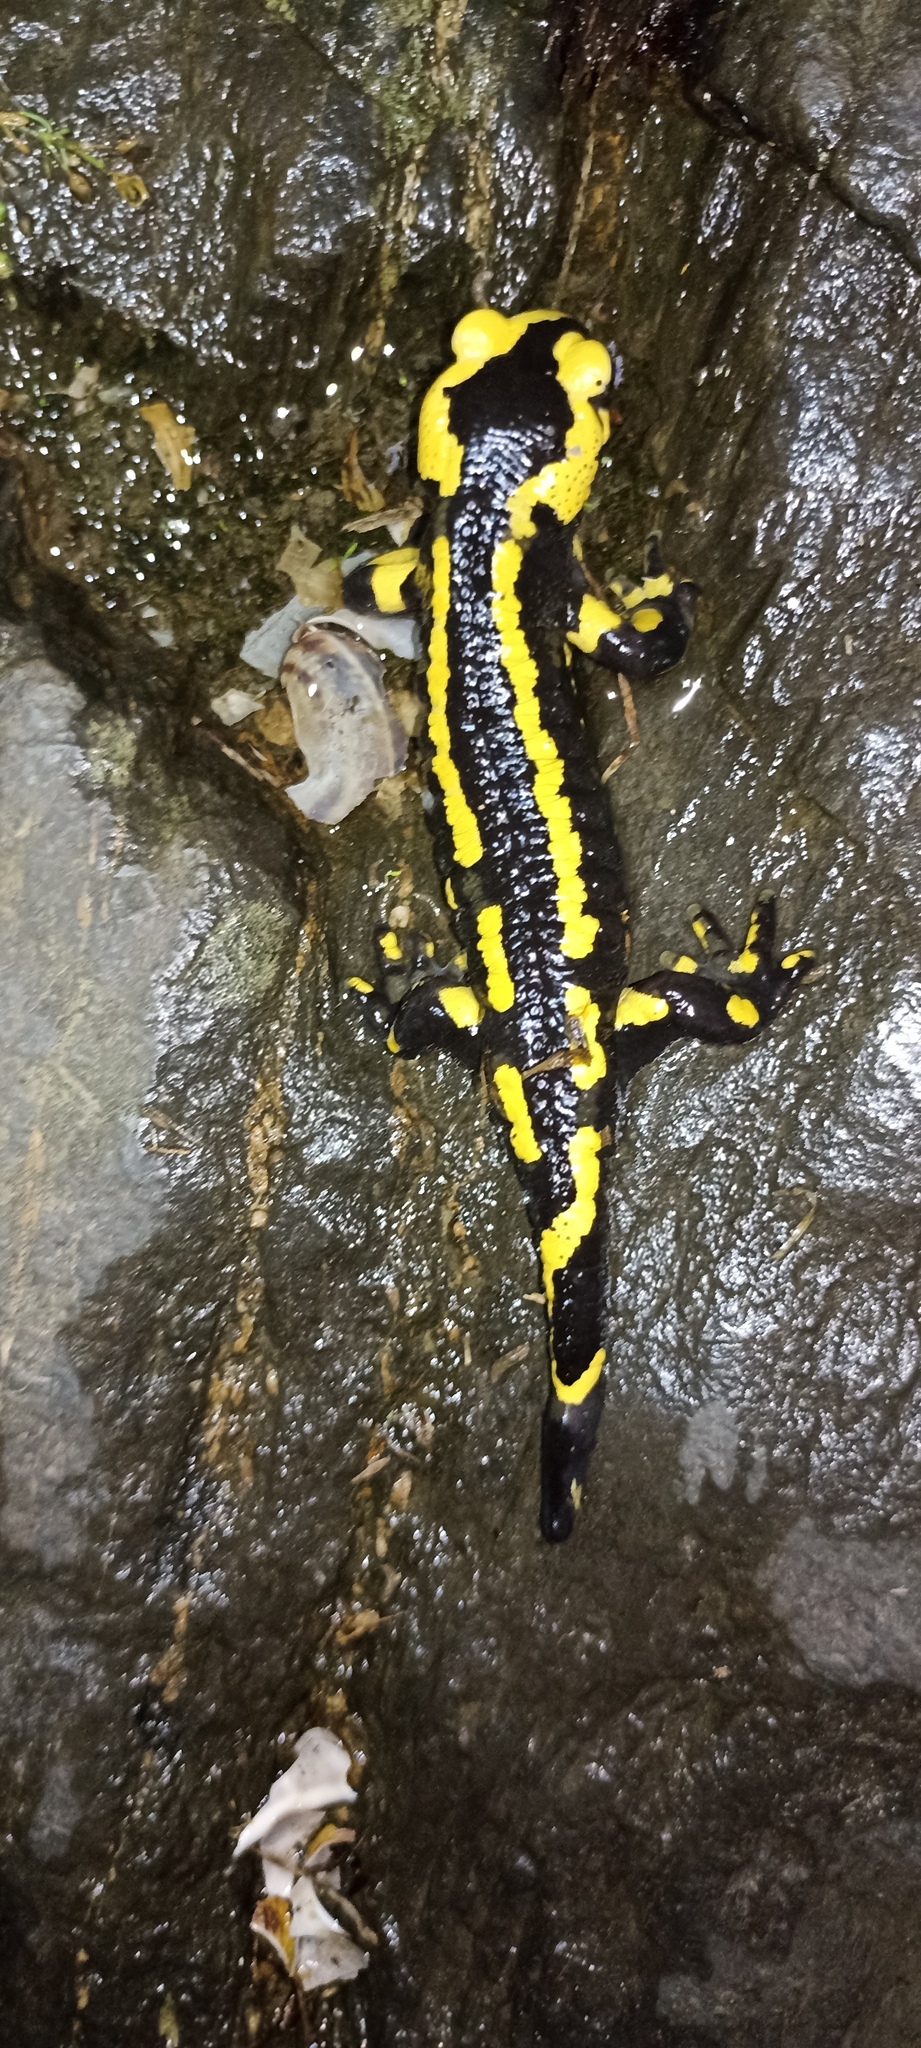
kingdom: Animalia
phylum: Chordata
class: Amphibia
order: Caudata
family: Salamandridae
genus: Salamandra
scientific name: Salamandra salamandra
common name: Fire salamander
